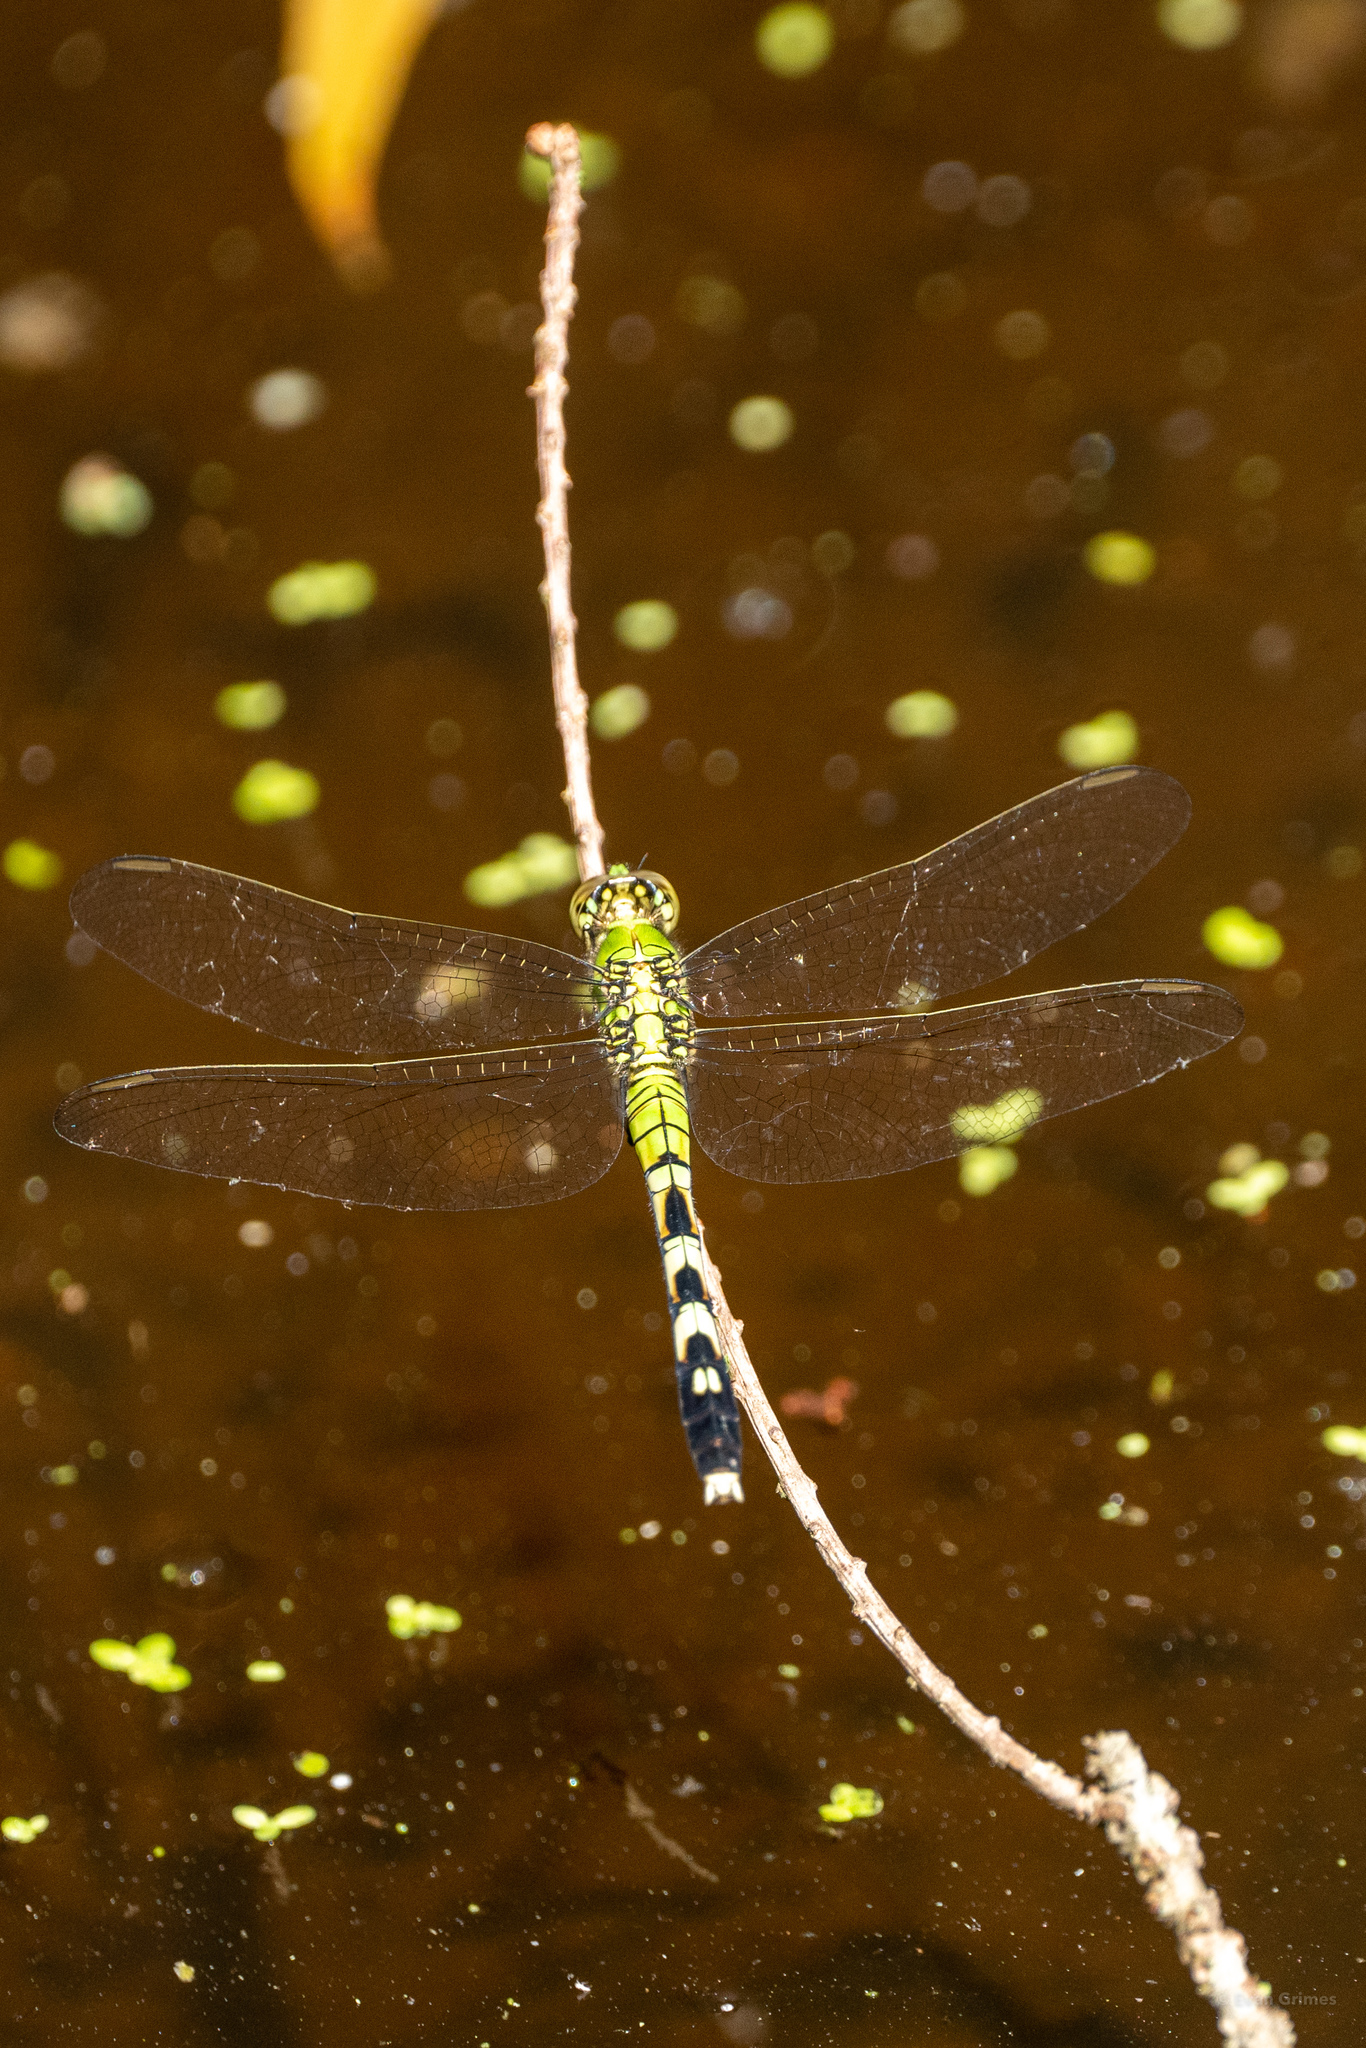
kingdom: Animalia
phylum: Arthropoda
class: Insecta
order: Odonata
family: Libellulidae
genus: Erythemis
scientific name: Erythemis simplicicollis
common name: Eastern pondhawk
